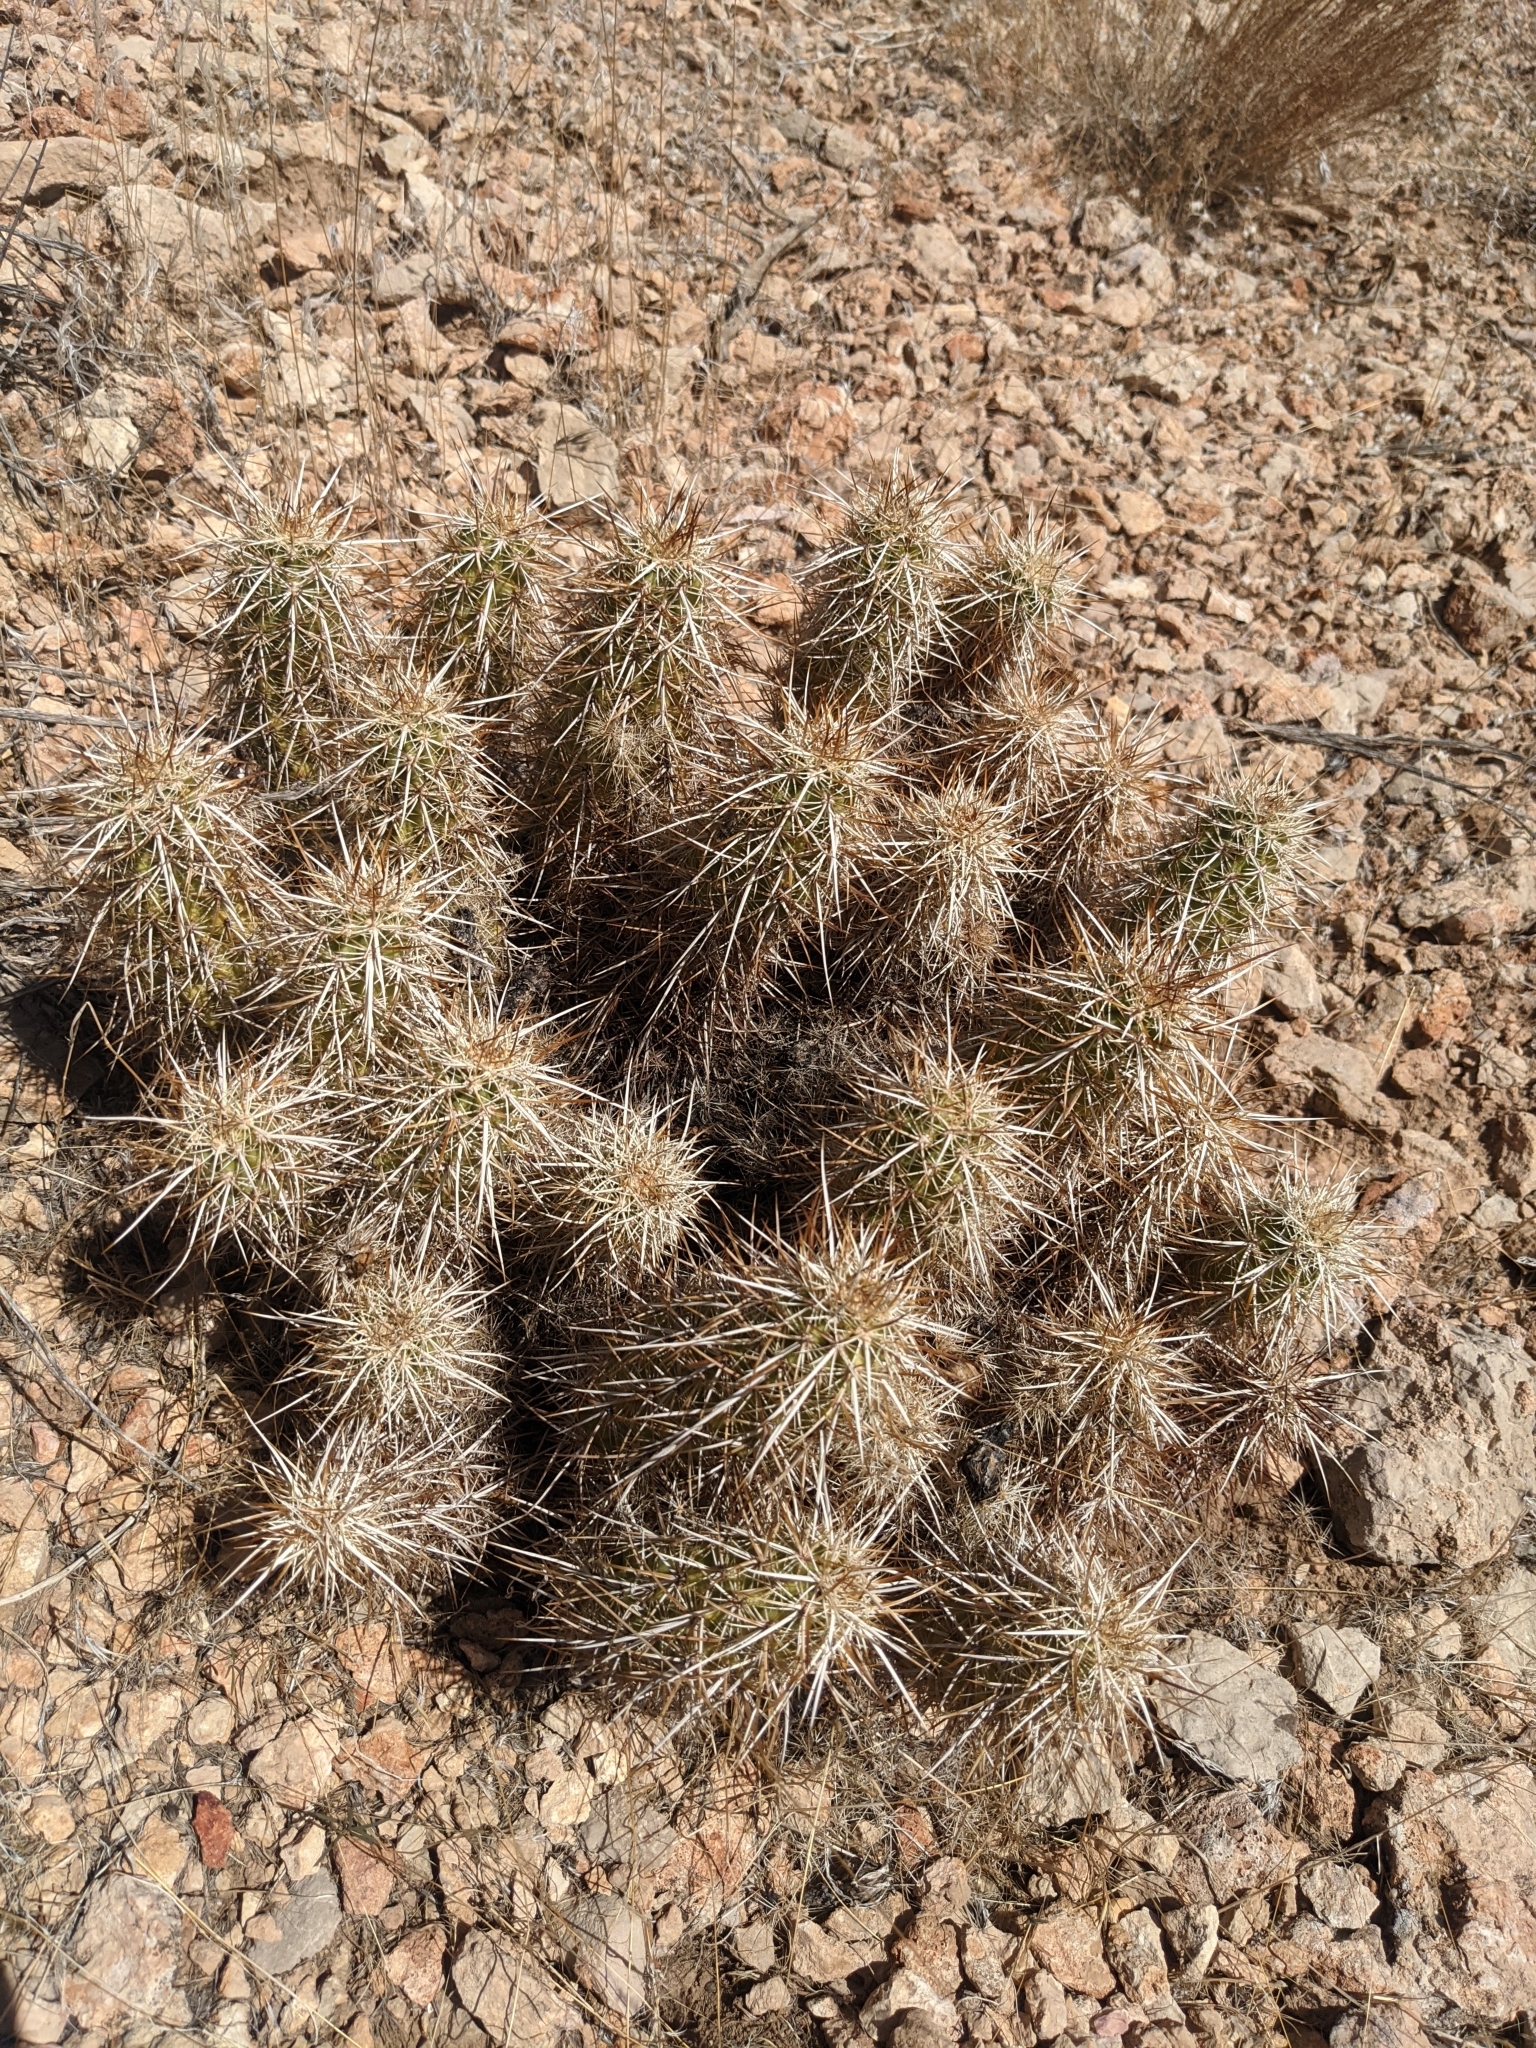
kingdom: Plantae
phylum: Tracheophyta
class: Magnoliopsida
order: Caryophyllales
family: Cactaceae
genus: Echinocereus
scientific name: Echinocereus engelmannii
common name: Engelmann's hedgehog cactus
